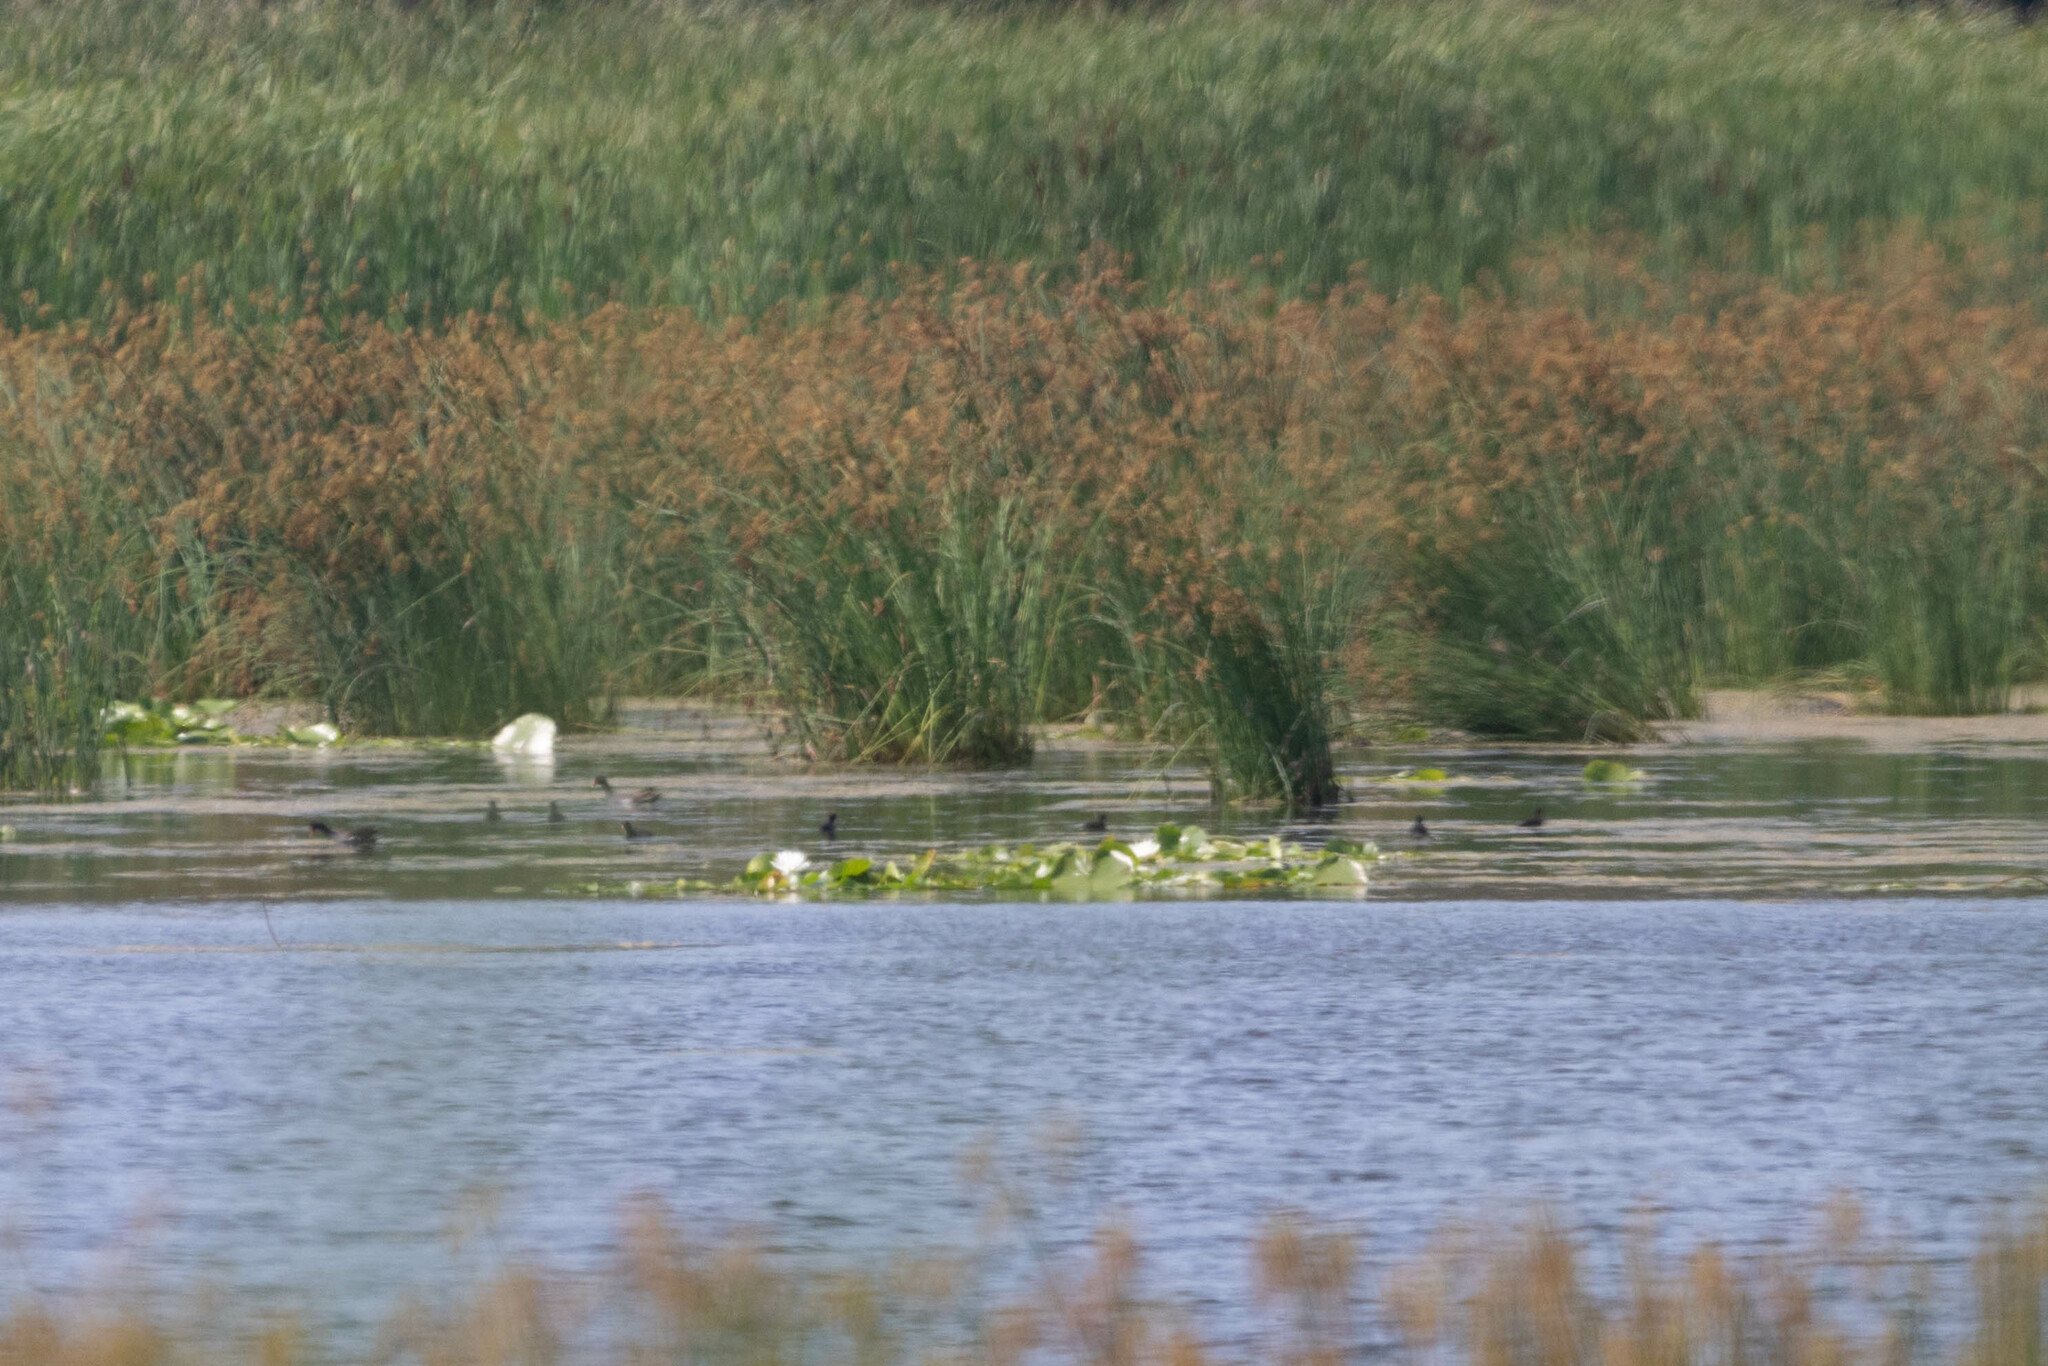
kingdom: Animalia
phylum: Chordata
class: Aves
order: Gruiformes
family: Rallidae
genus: Gallinula
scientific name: Gallinula chloropus
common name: Common moorhen
